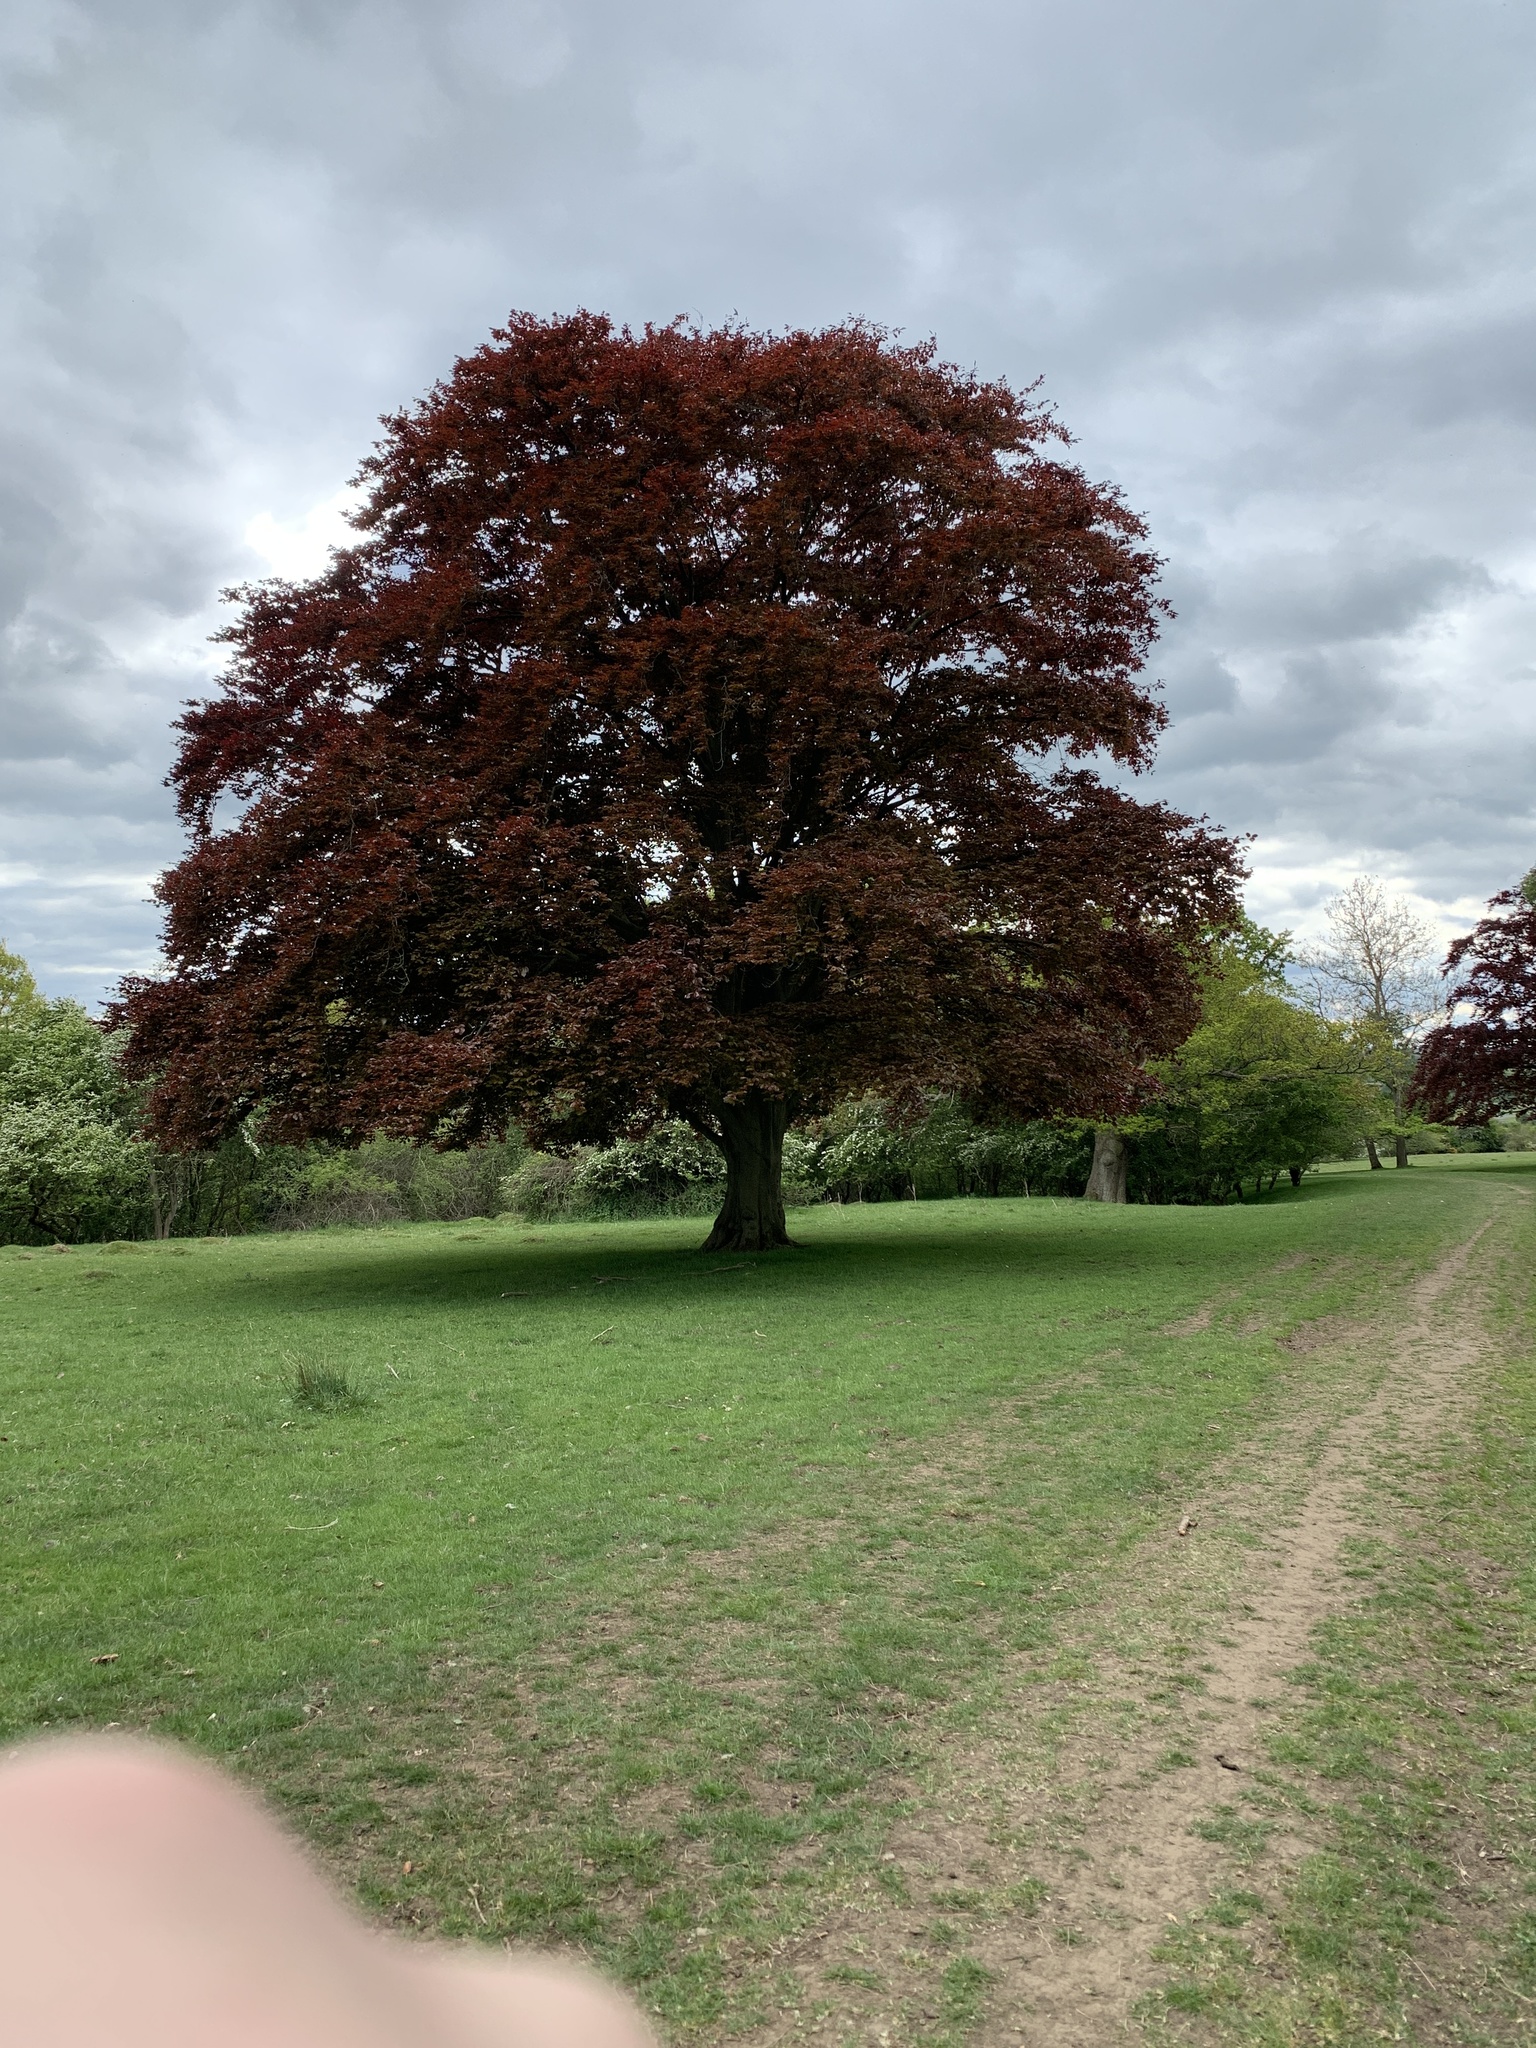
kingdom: Plantae
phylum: Tracheophyta
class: Magnoliopsida
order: Fagales
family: Fagaceae
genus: Fagus
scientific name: Fagus sylvatica
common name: Beech
